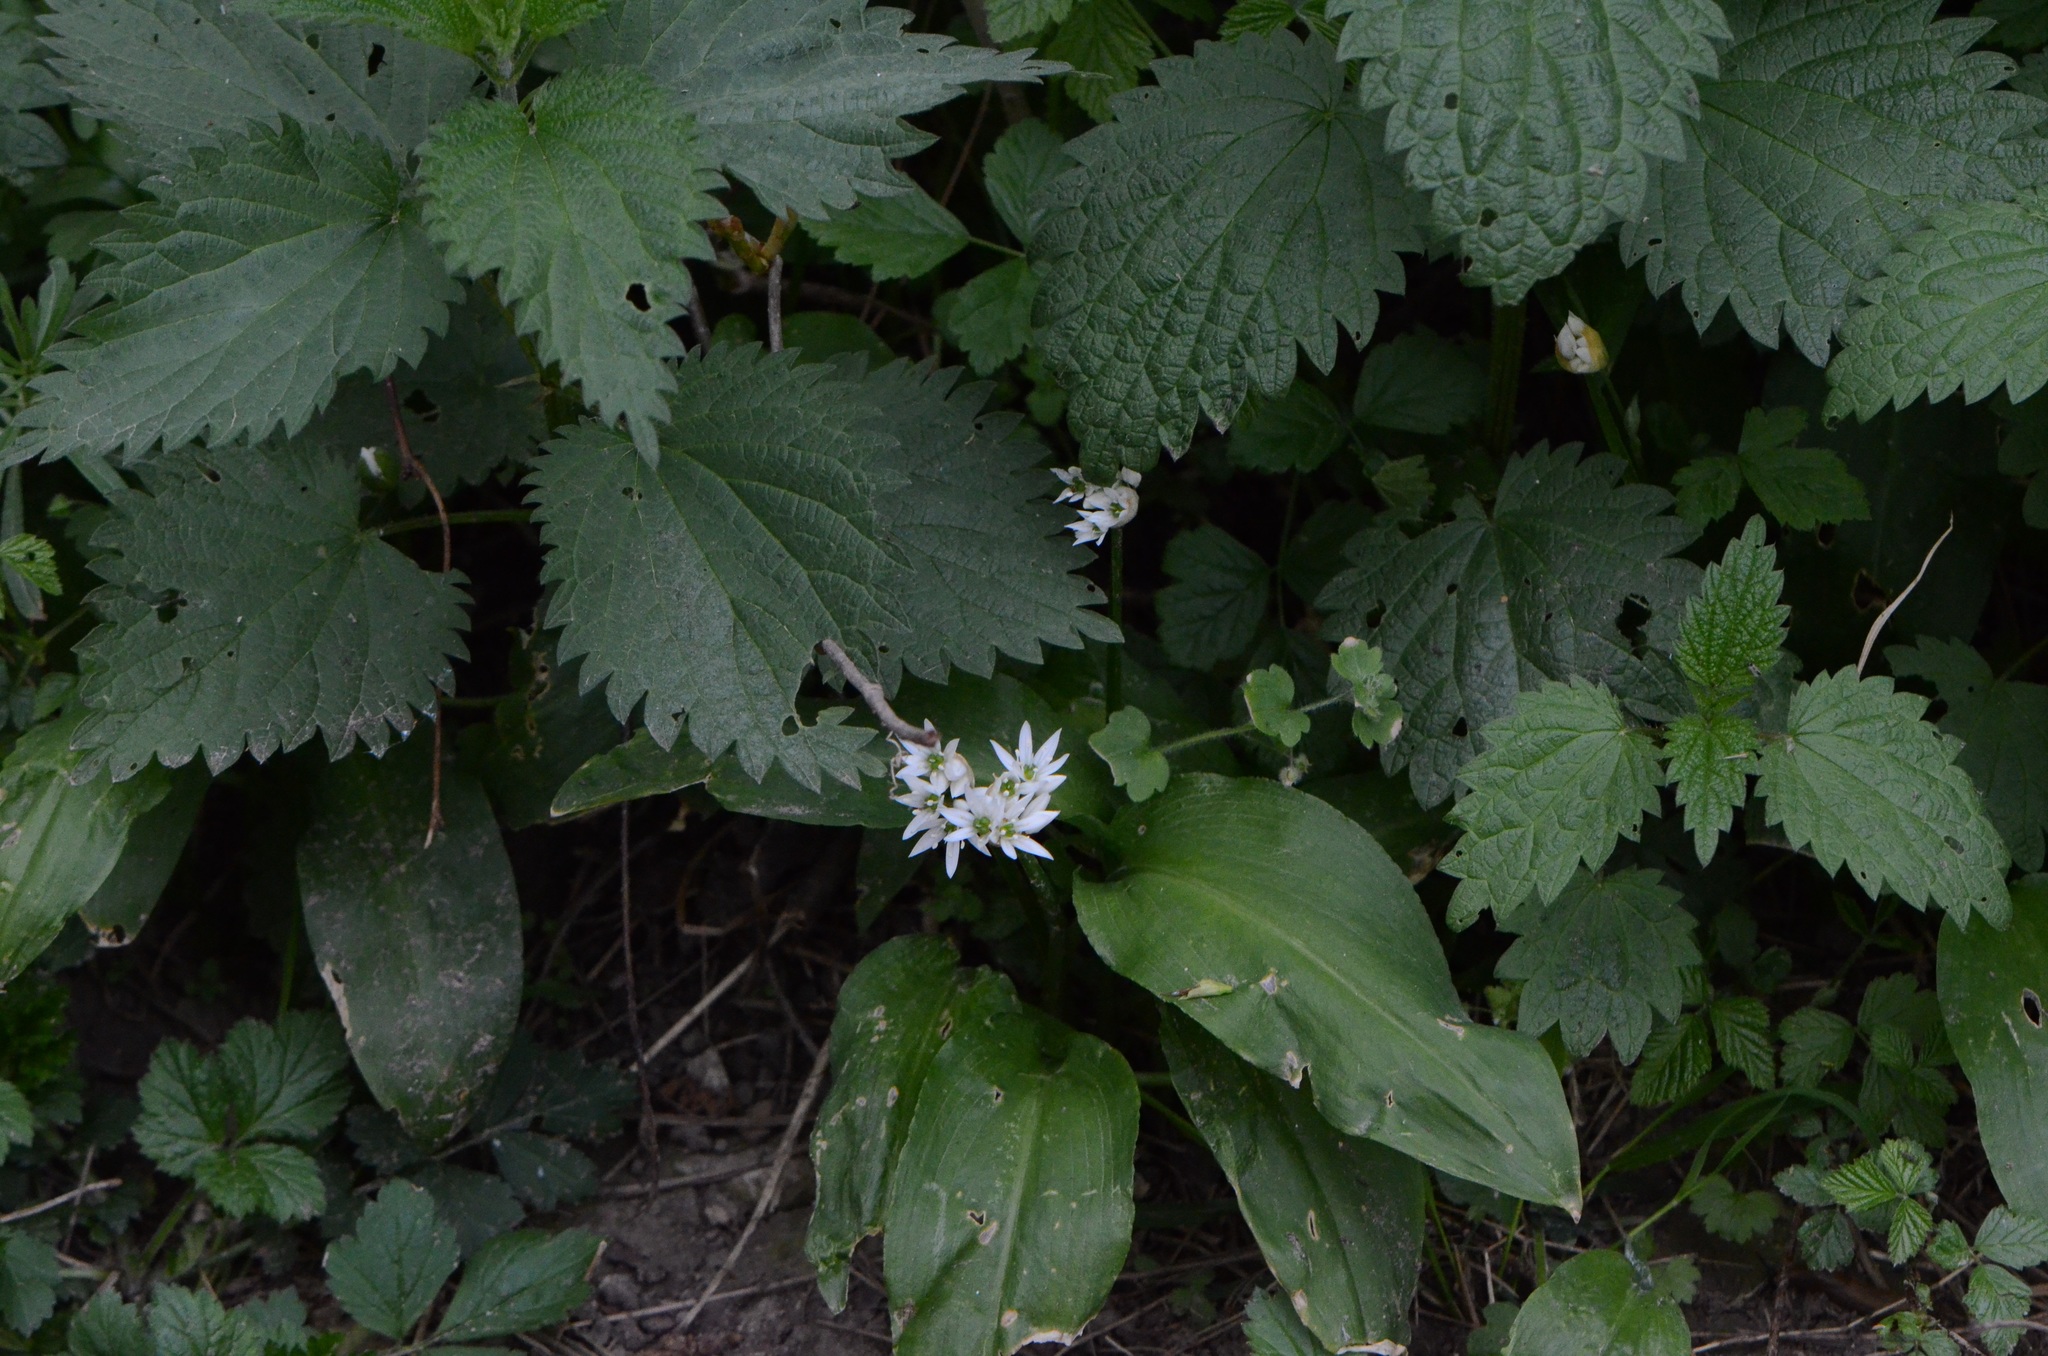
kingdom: Plantae
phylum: Tracheophyta
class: Liliopsida
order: Asparagales
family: Amaryllidaceae
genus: Allium
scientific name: Allium ursinum
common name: Ramsons
